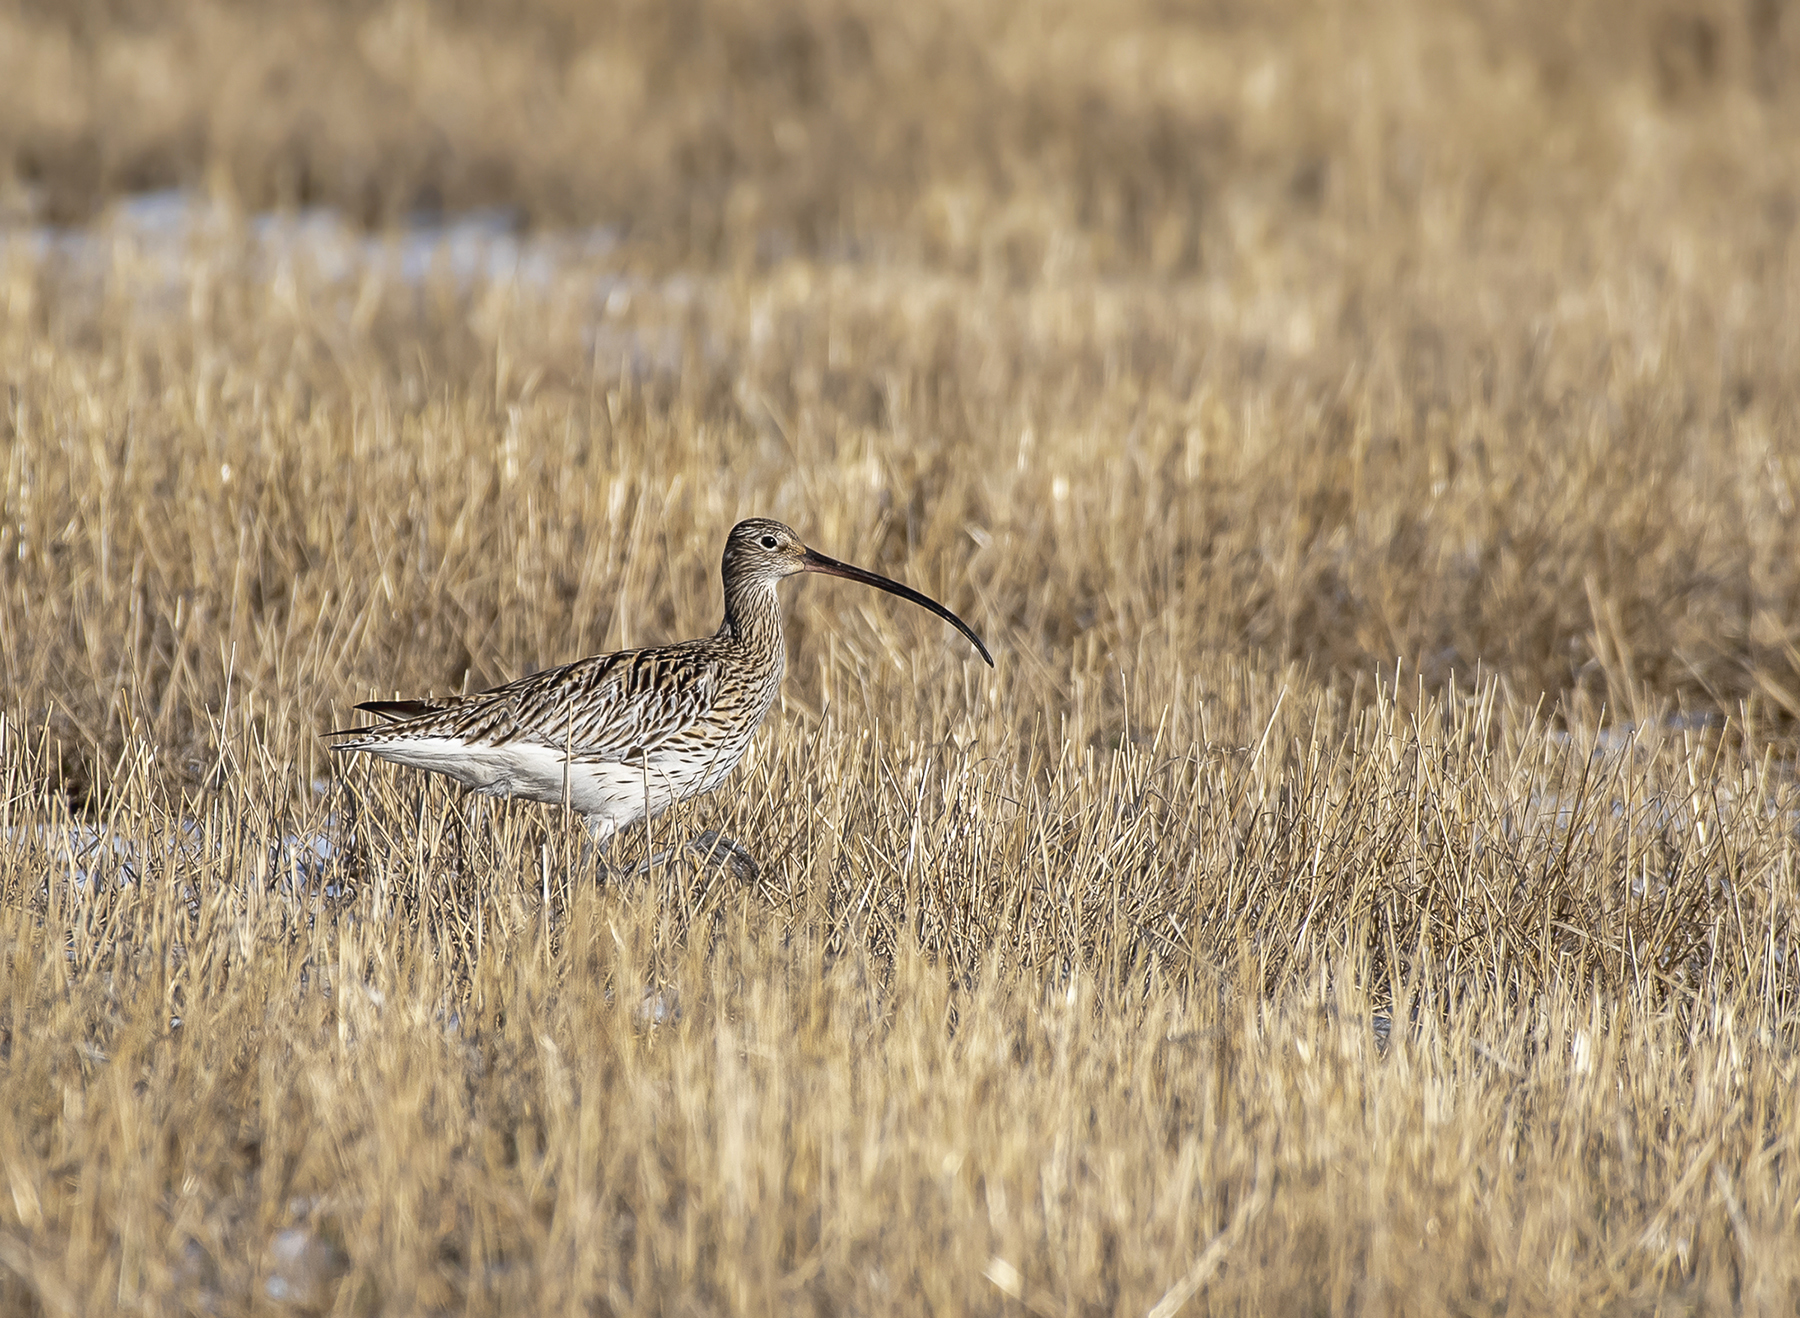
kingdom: Animalia
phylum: Chordata
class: Aves
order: Charadriiformes
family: Scolopacidae
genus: Numenius
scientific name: Numenius arquata
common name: Eurasian curlew
